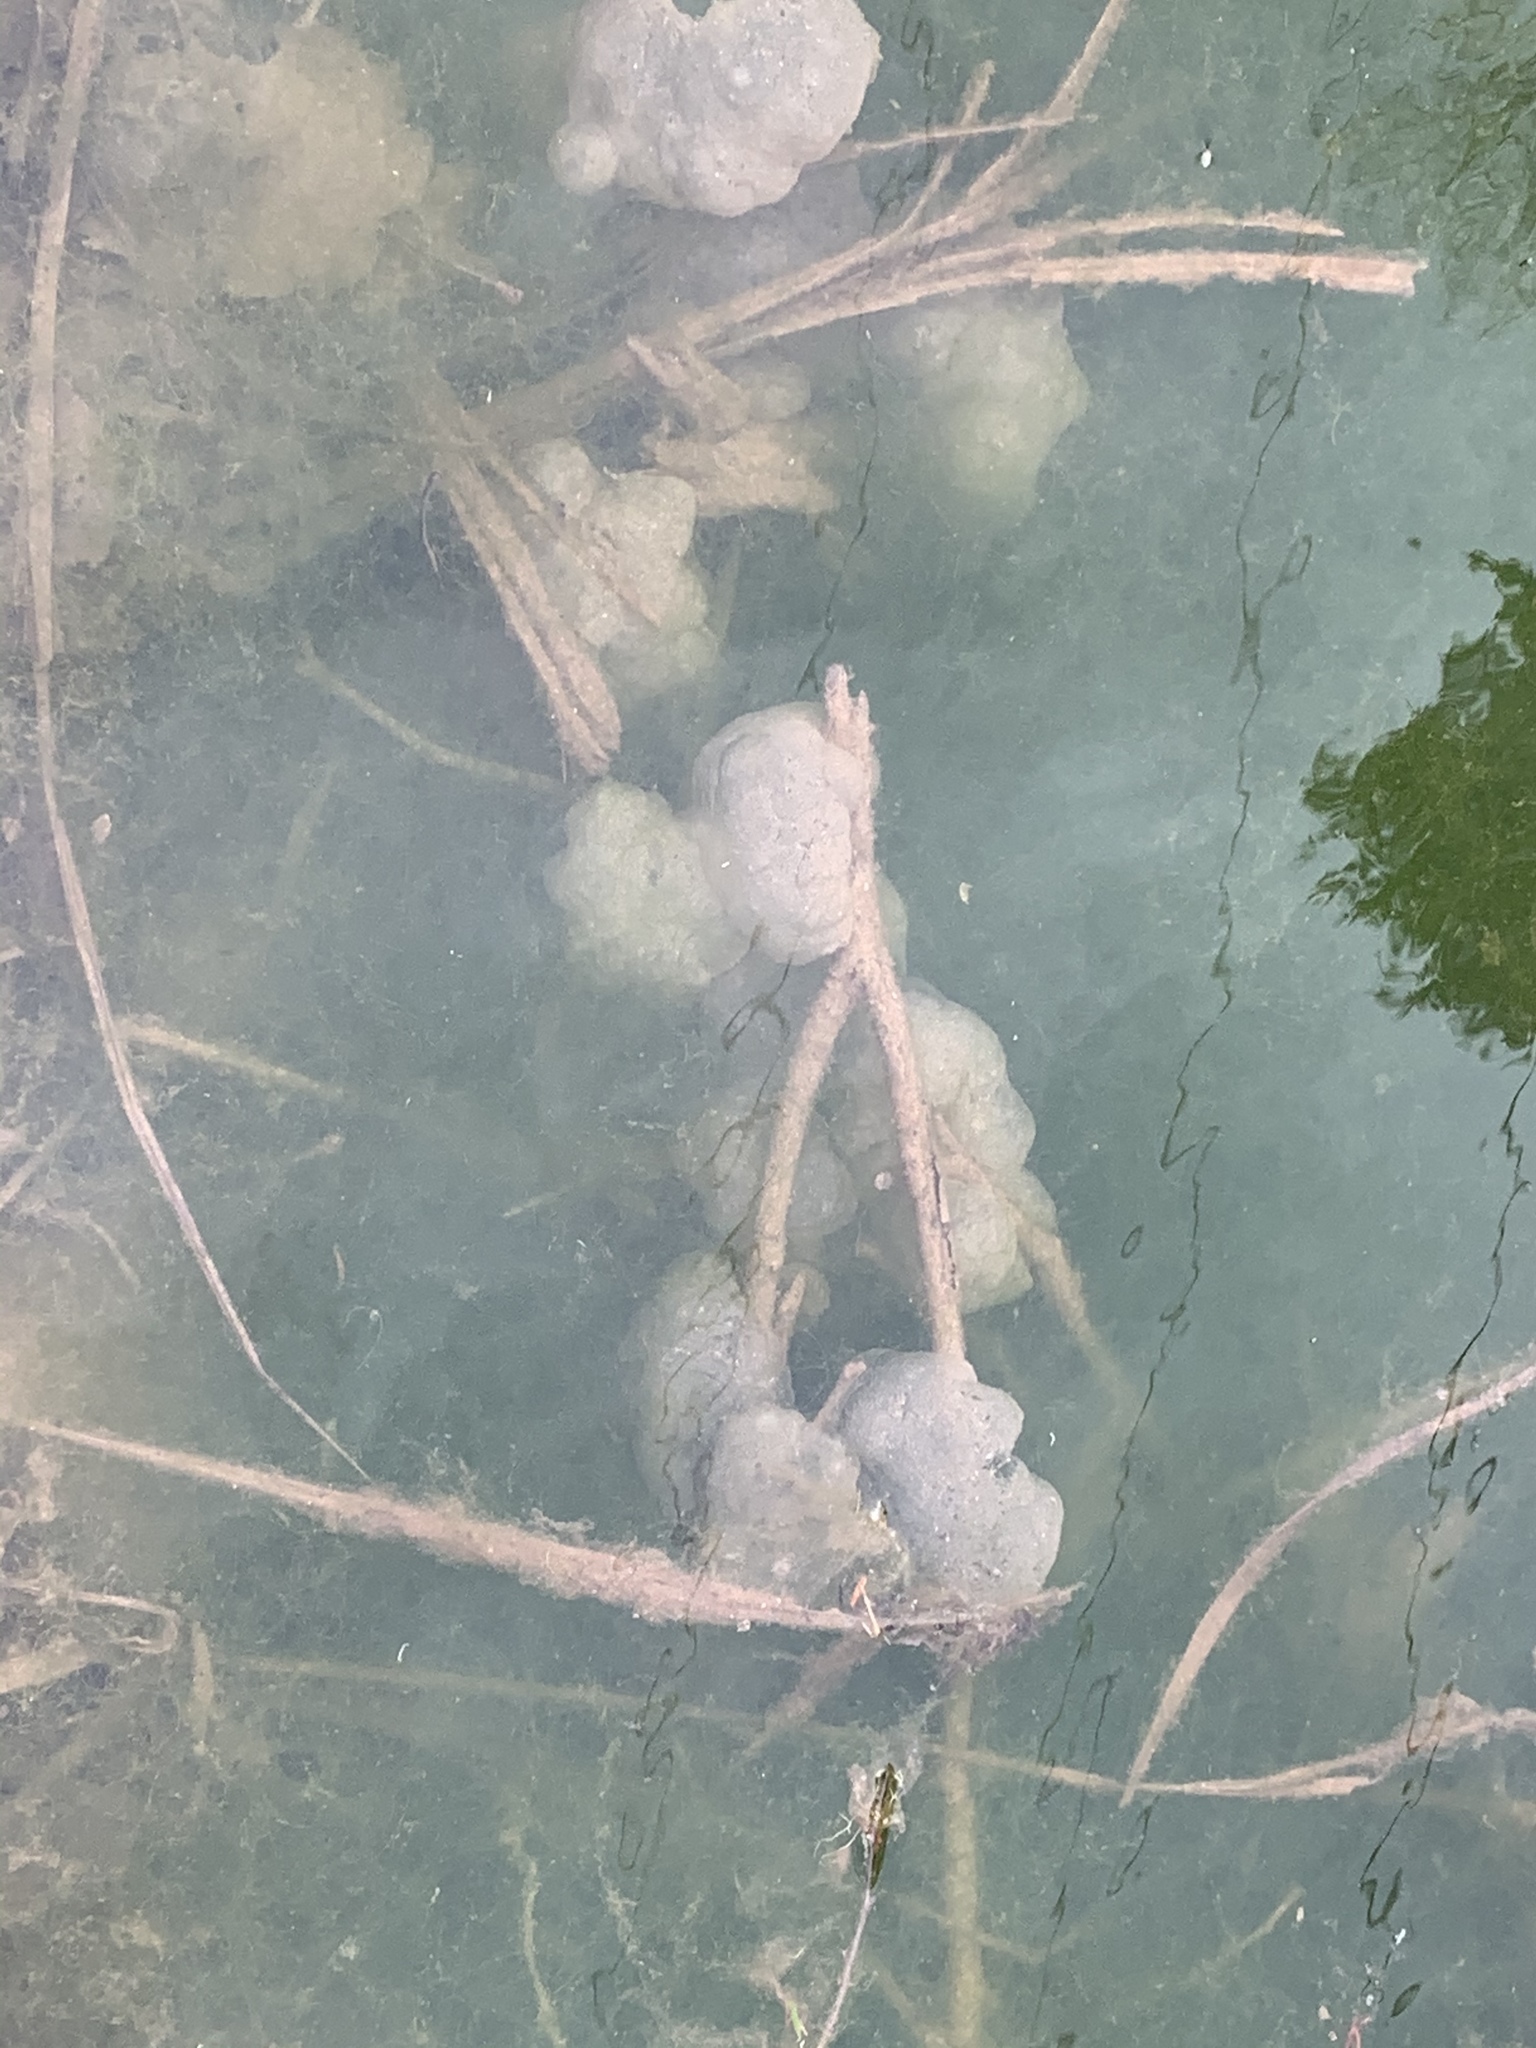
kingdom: Animalia
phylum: Chordata
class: Amphibia
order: Caudata
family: Ambystomatidae
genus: Ambystoma
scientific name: Ambystoma maculatum
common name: Spotted salamander
